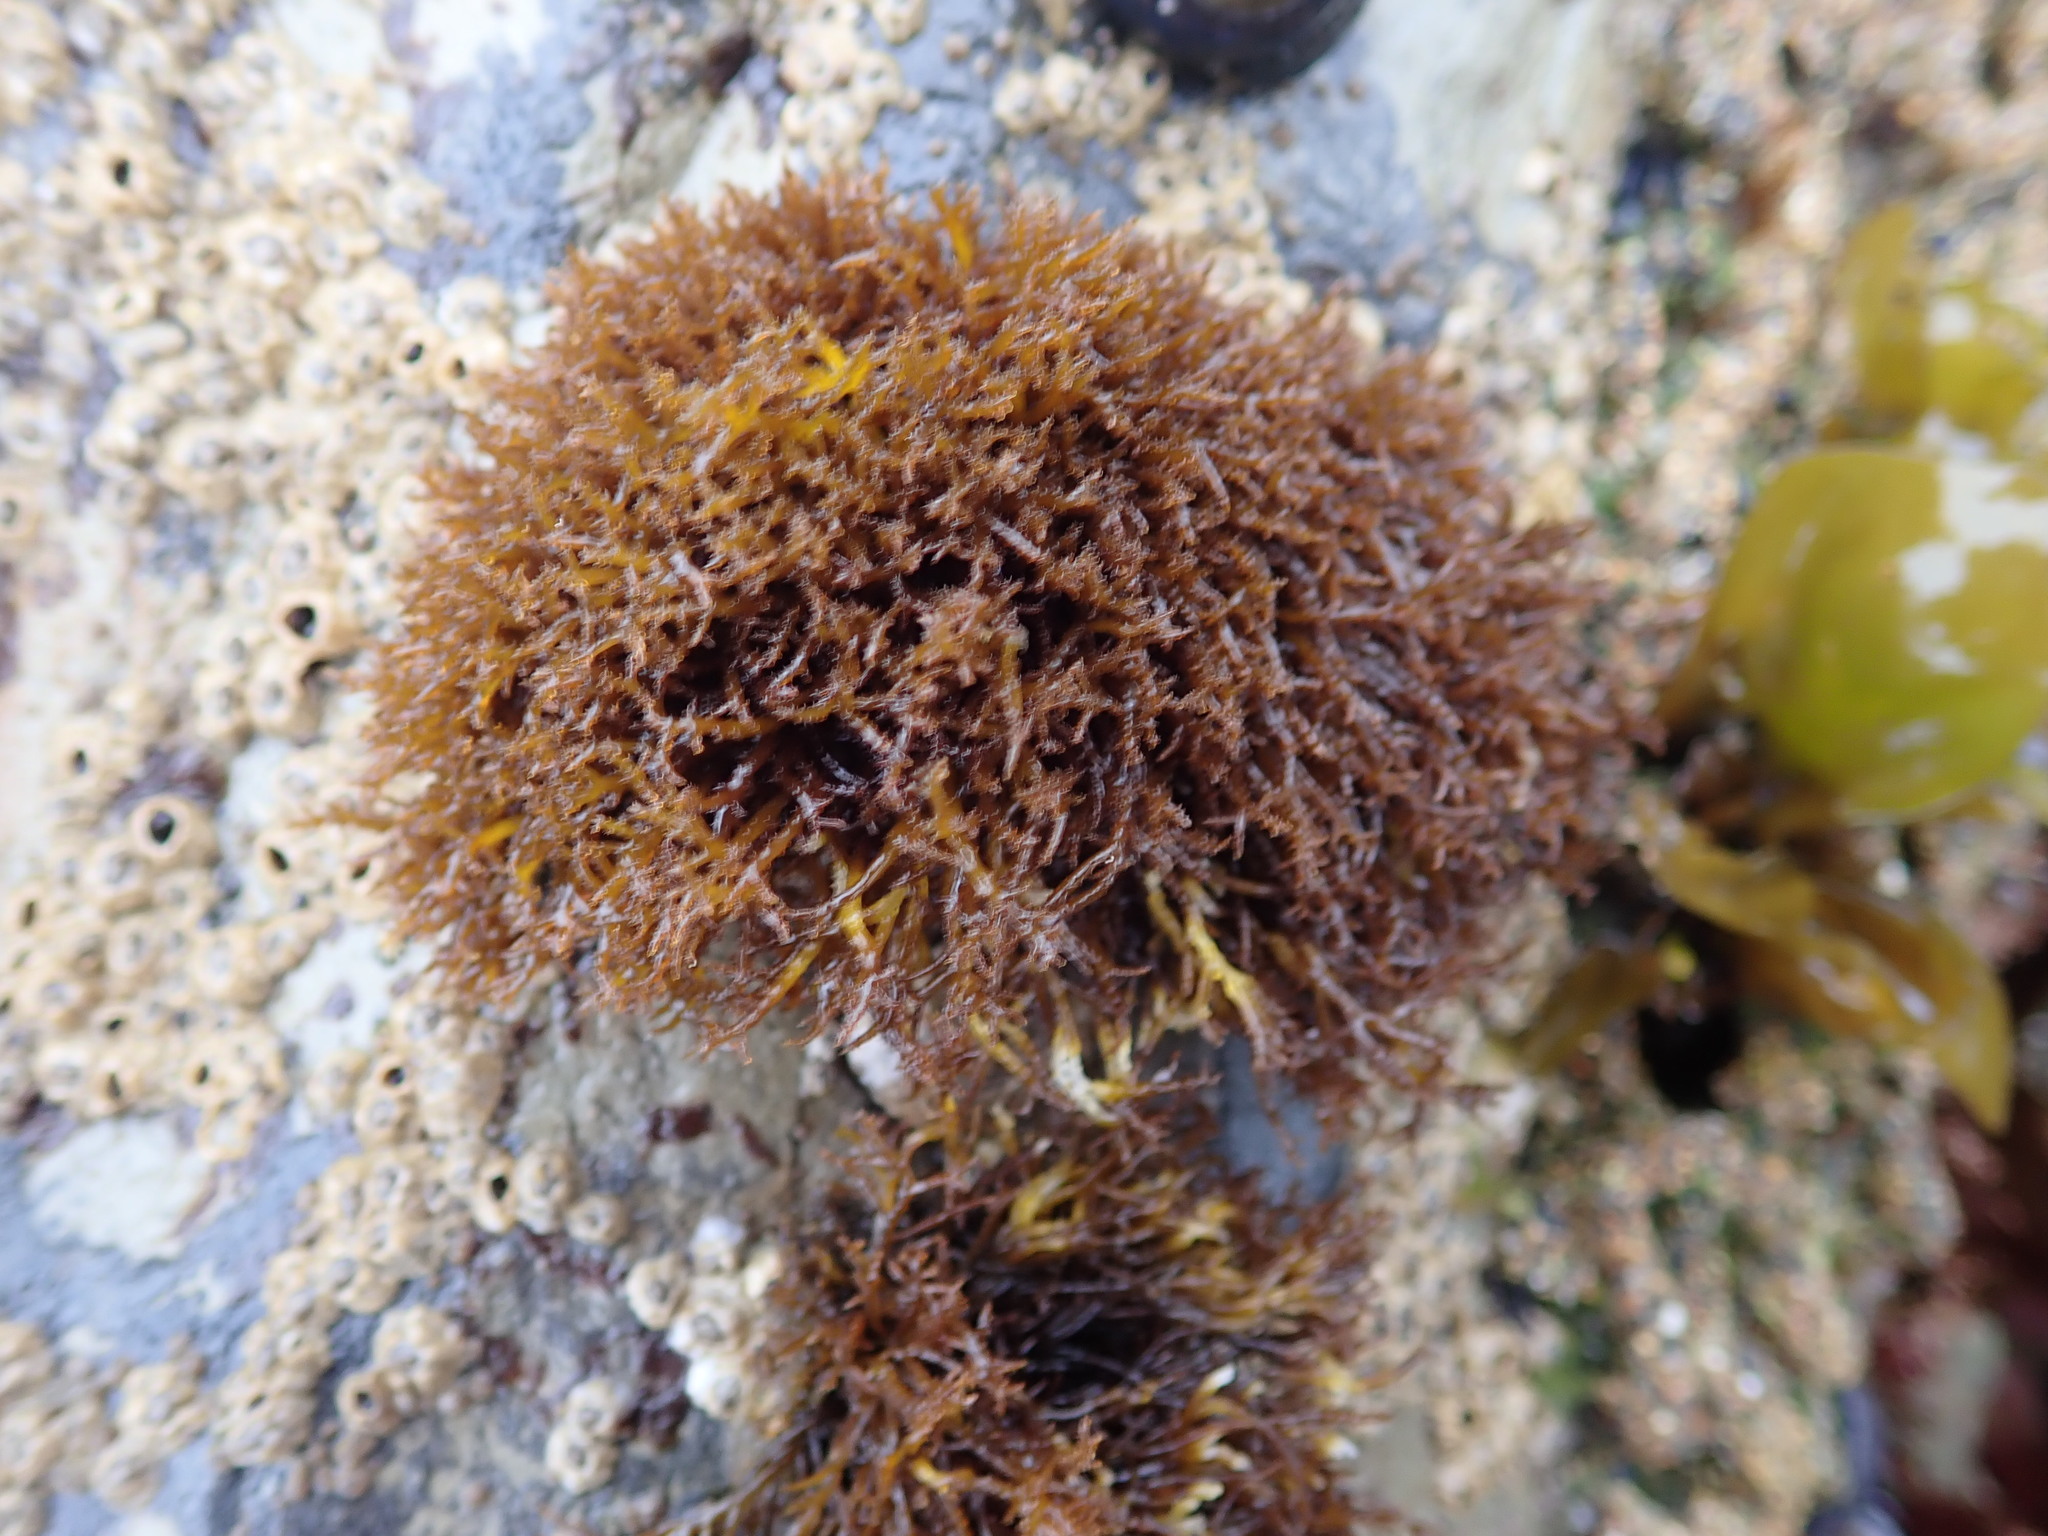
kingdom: Plantae
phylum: Rhodophyta
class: Florideophyceae
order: Gigartinales
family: Endocladiaceae
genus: Endocladia
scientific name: Endocladia muricata
